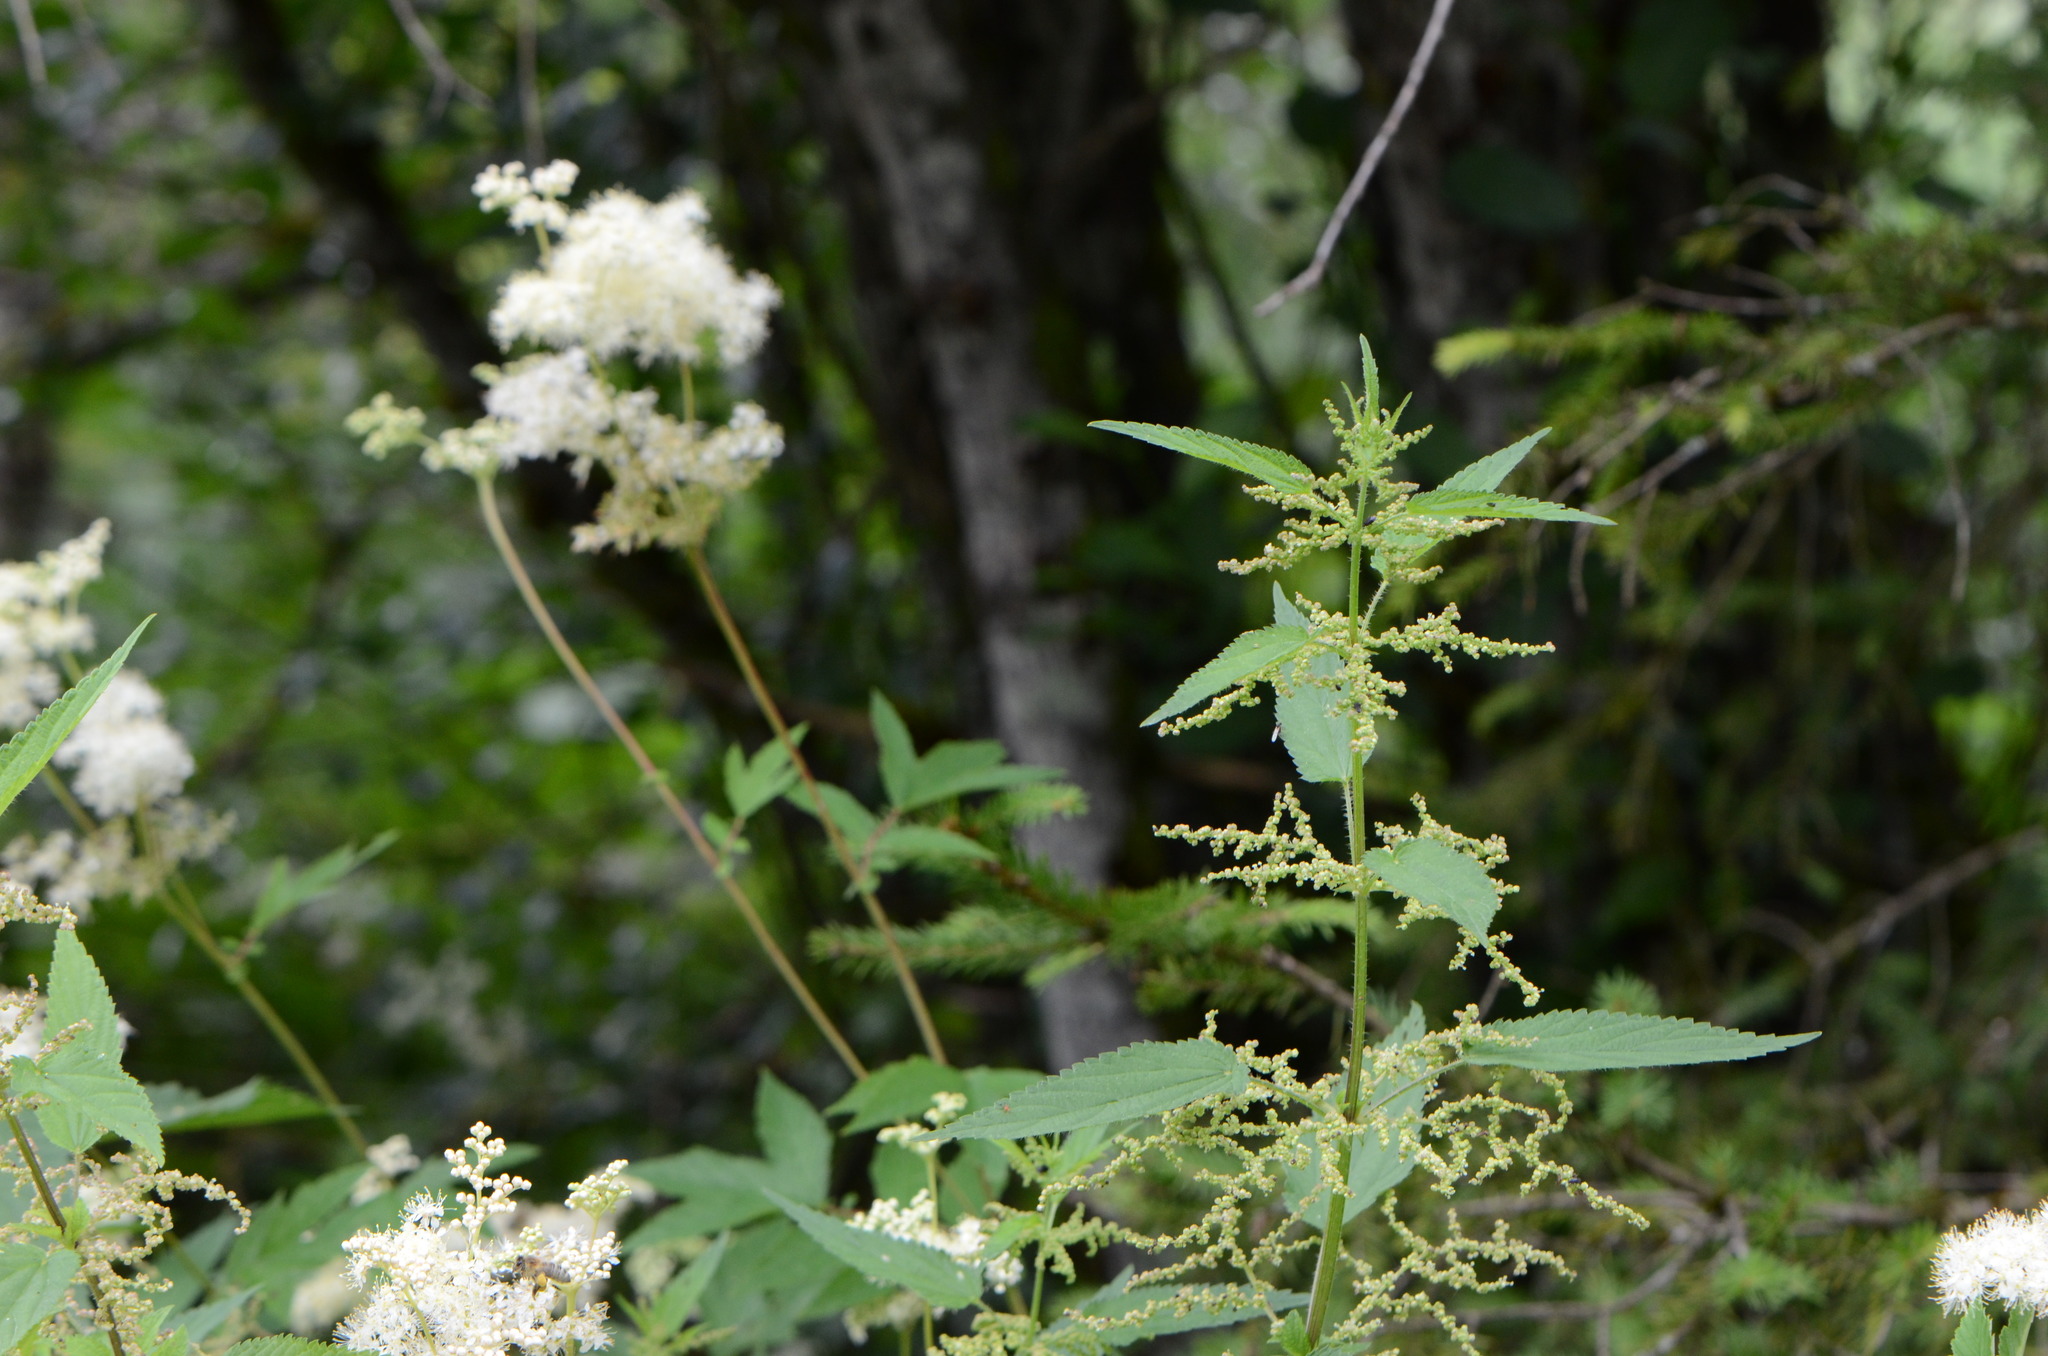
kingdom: Plantae
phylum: Tracheophyta
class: Magnoliopsida
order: Rosales
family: Urticaceae
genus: Urtica
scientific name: Urtica dioica
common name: Common nettle
